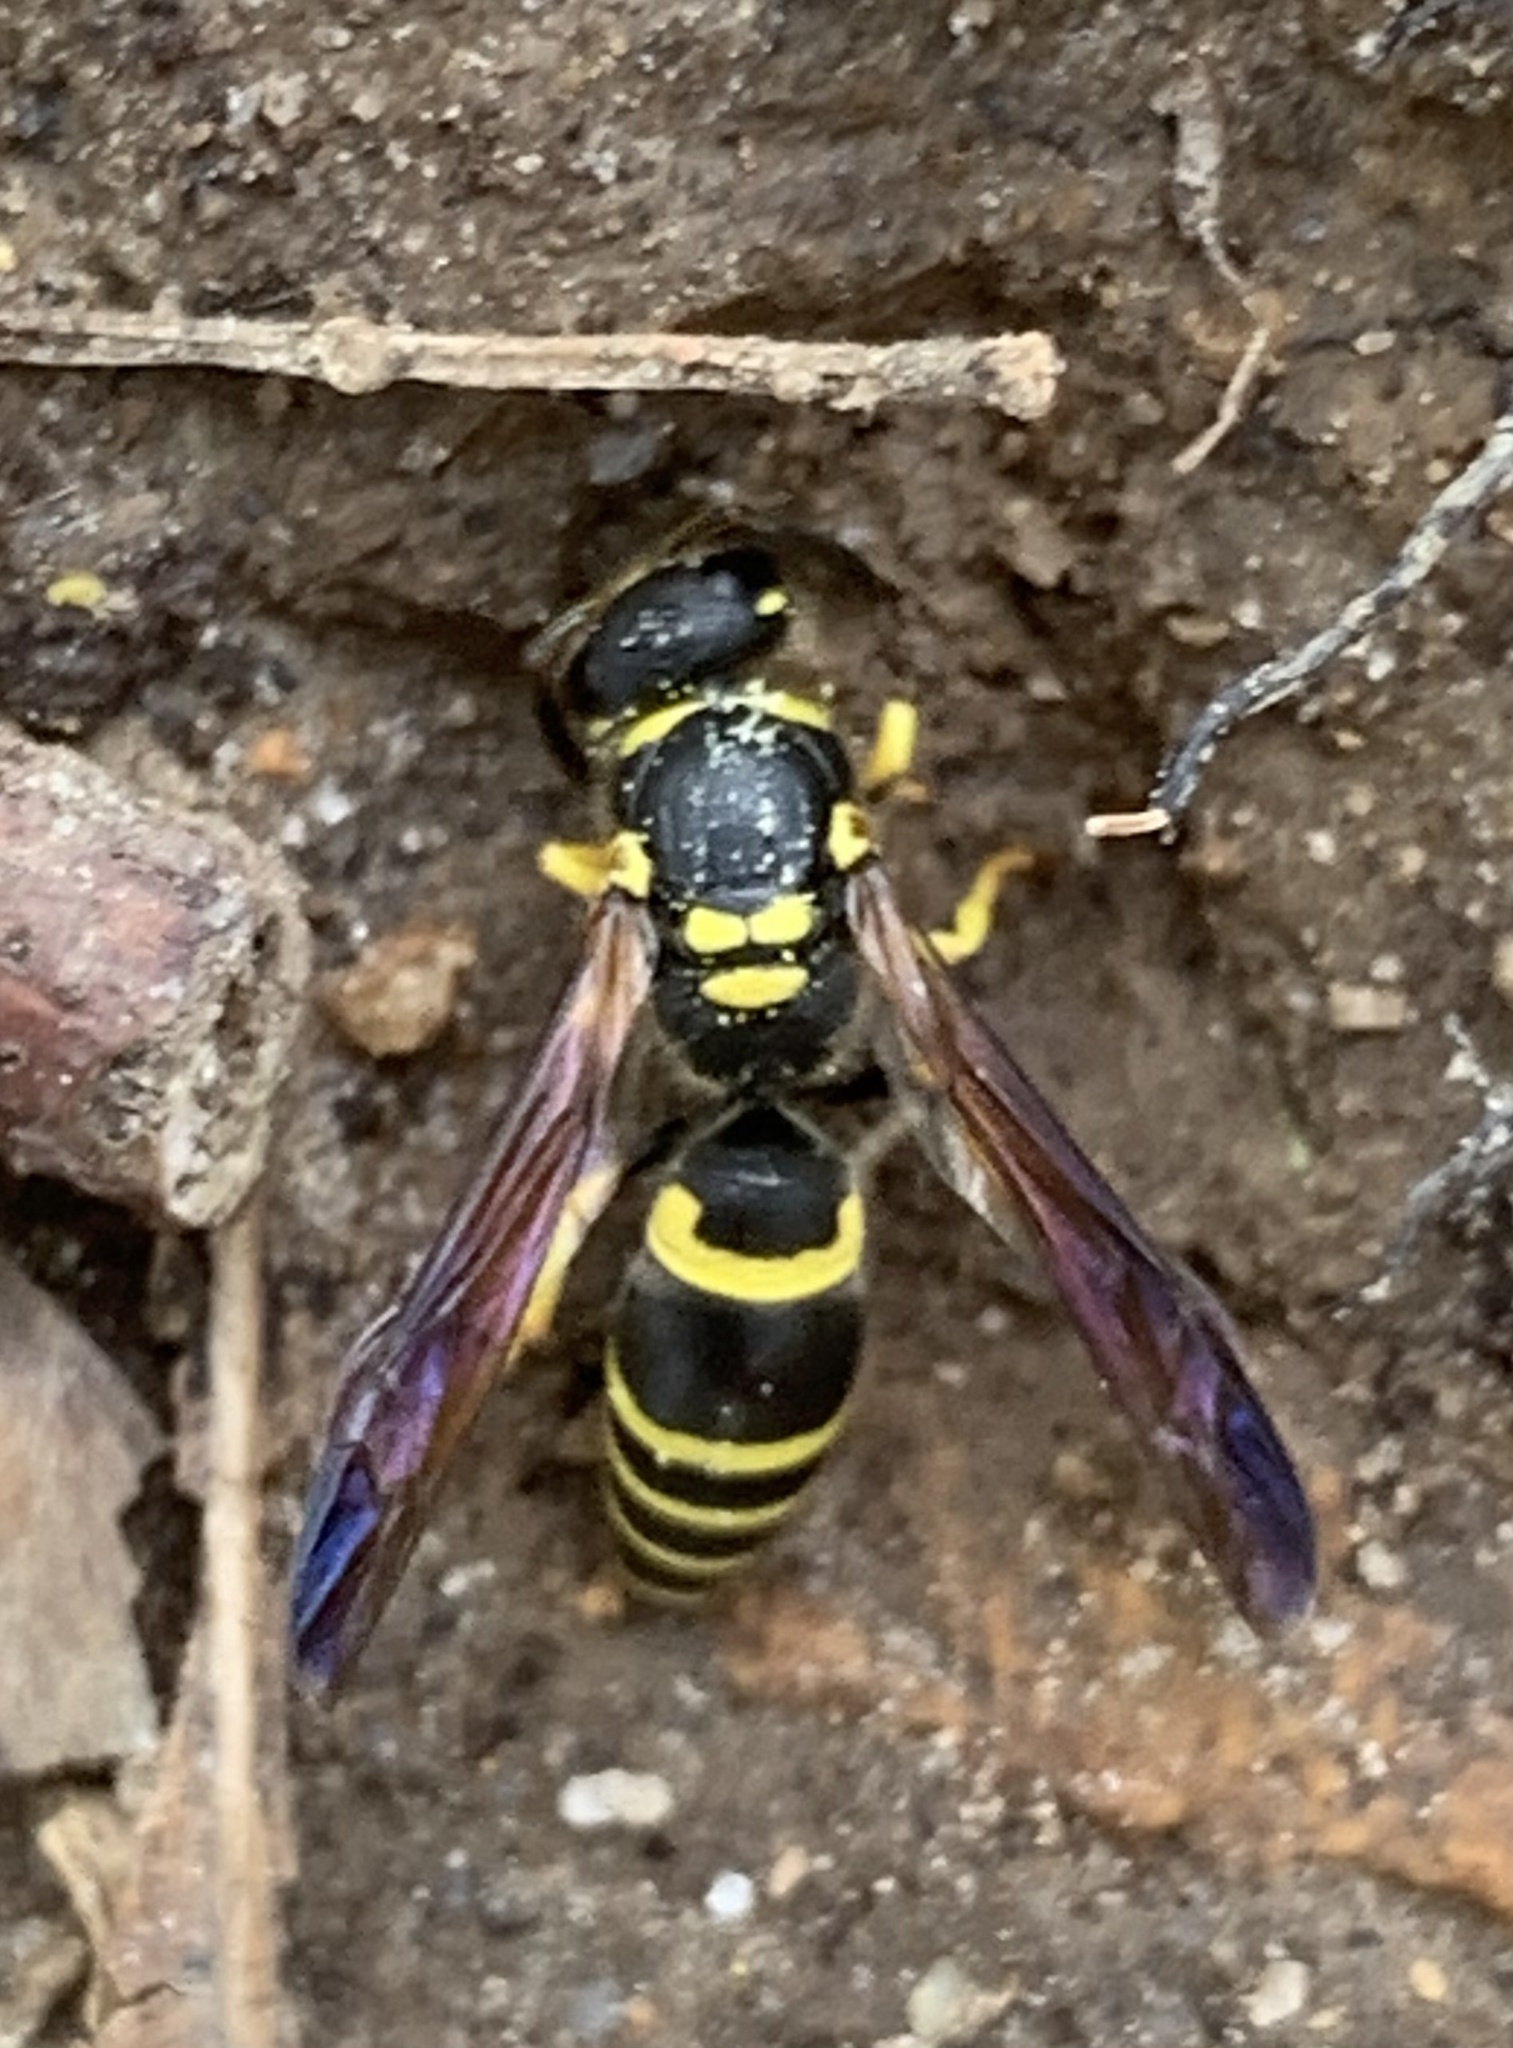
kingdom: Animalia
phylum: Arthropoda
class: Insecta
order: Hymenoptera
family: Vespidae
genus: Ancistrocerus
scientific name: Ancistrocerus adiabatus
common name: Bramble mason wasp
